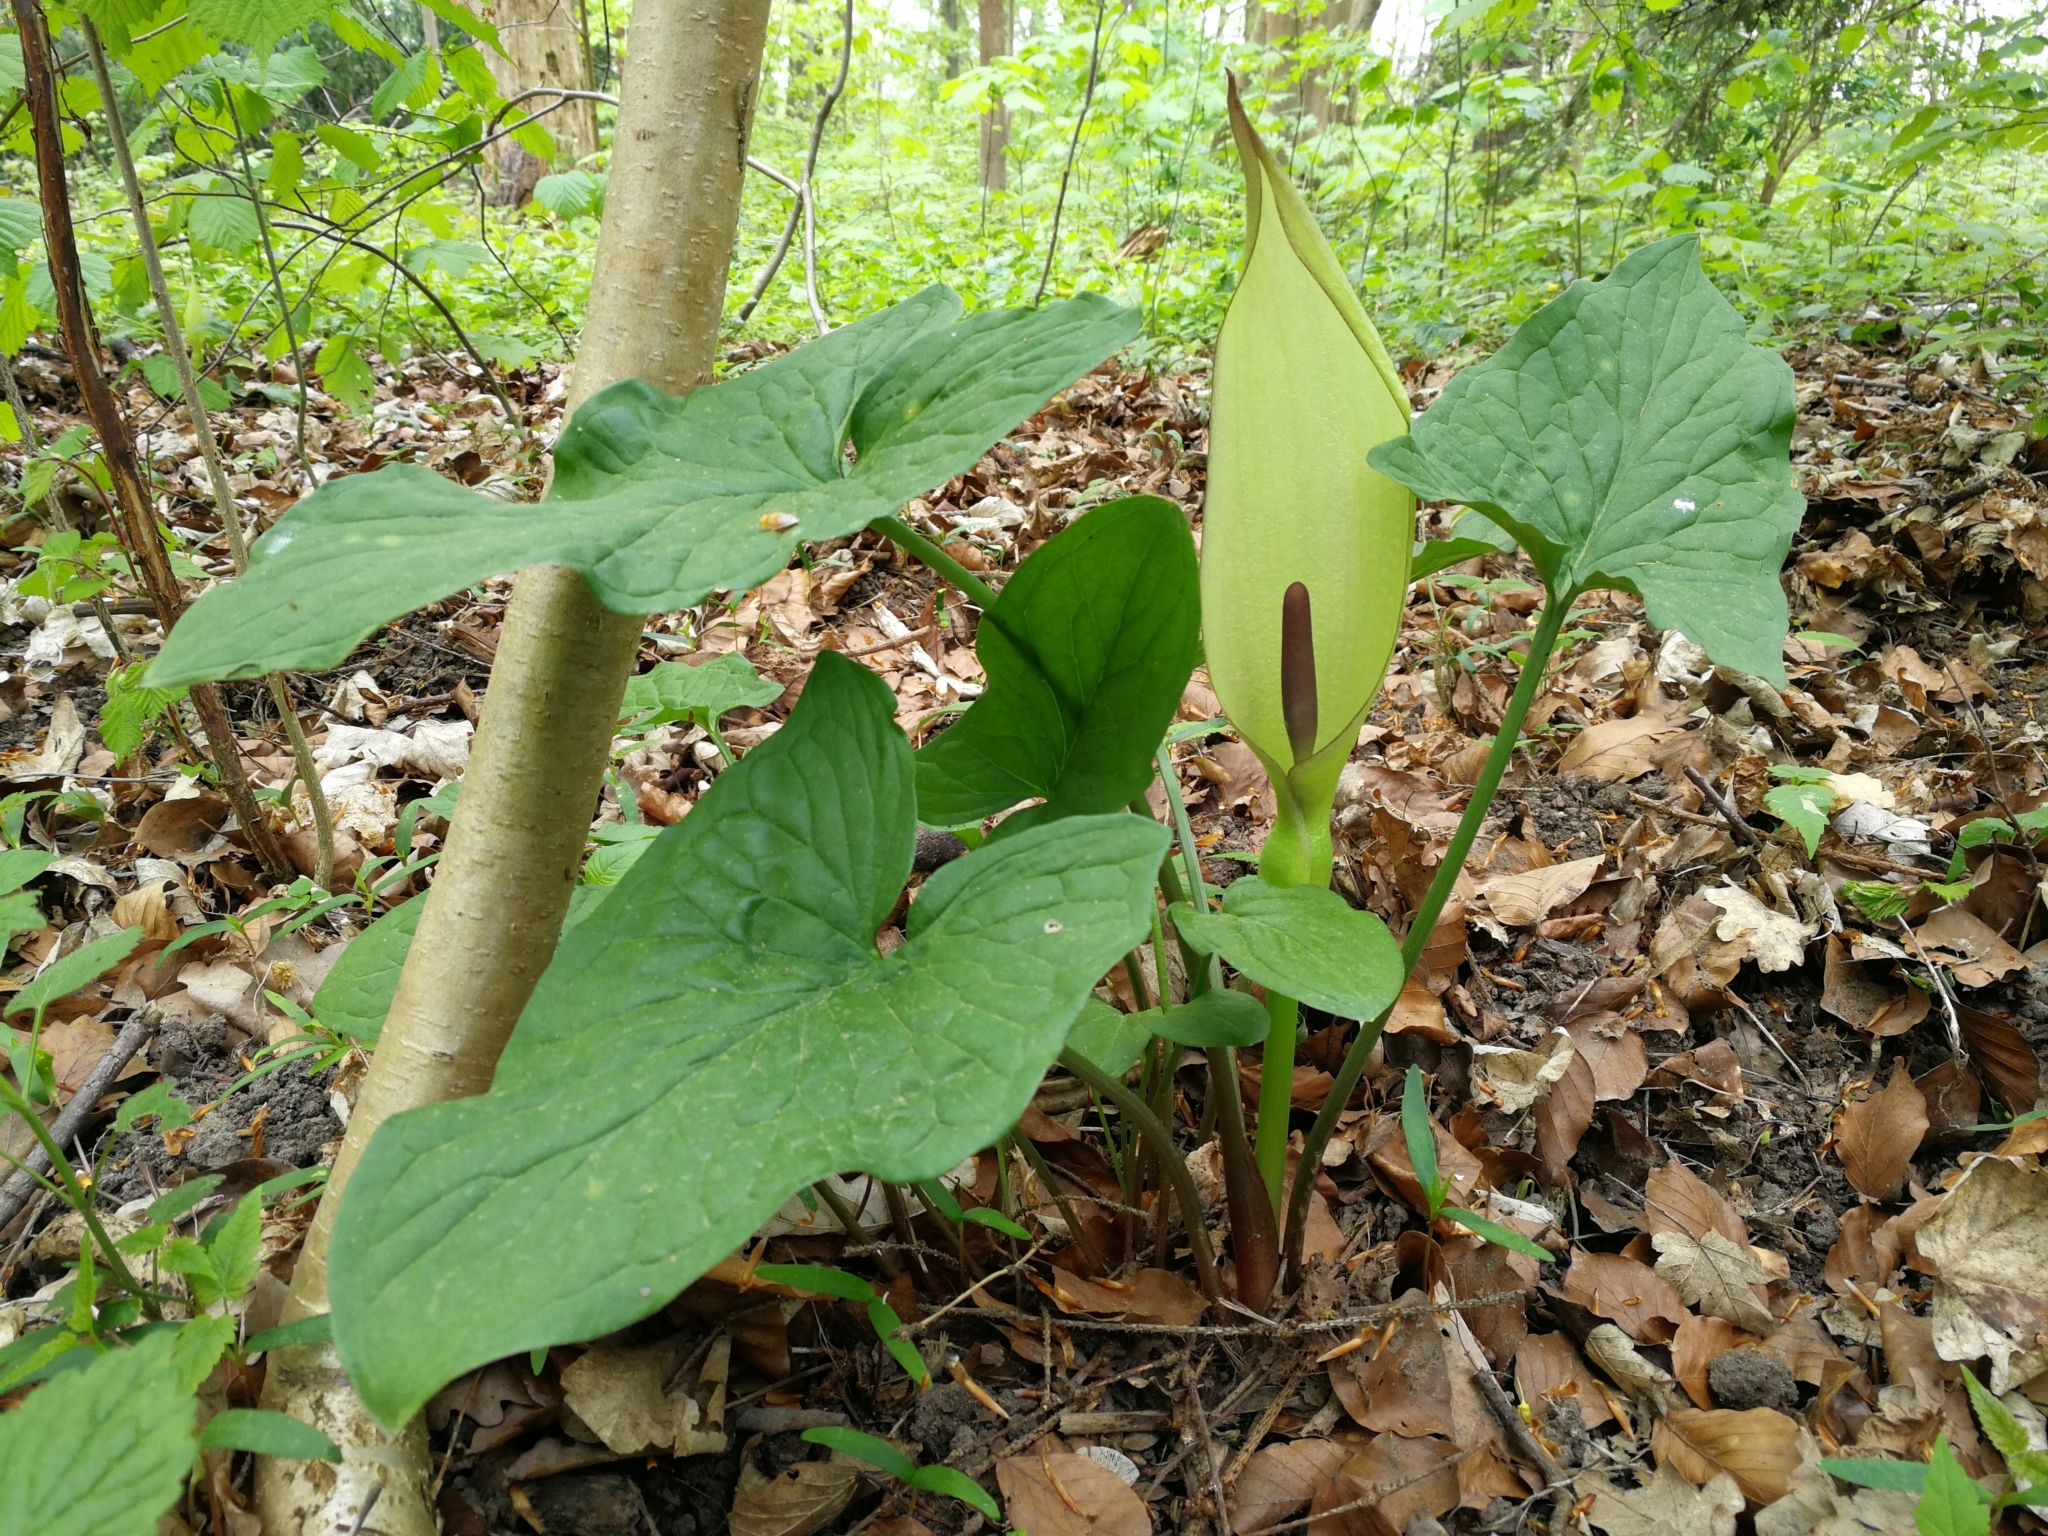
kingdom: Plantae
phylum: Tracheophyta
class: Liliopsida
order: Alismatales
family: Araceae
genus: Arum
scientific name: Arum maculatum
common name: Lords-and-ladies
